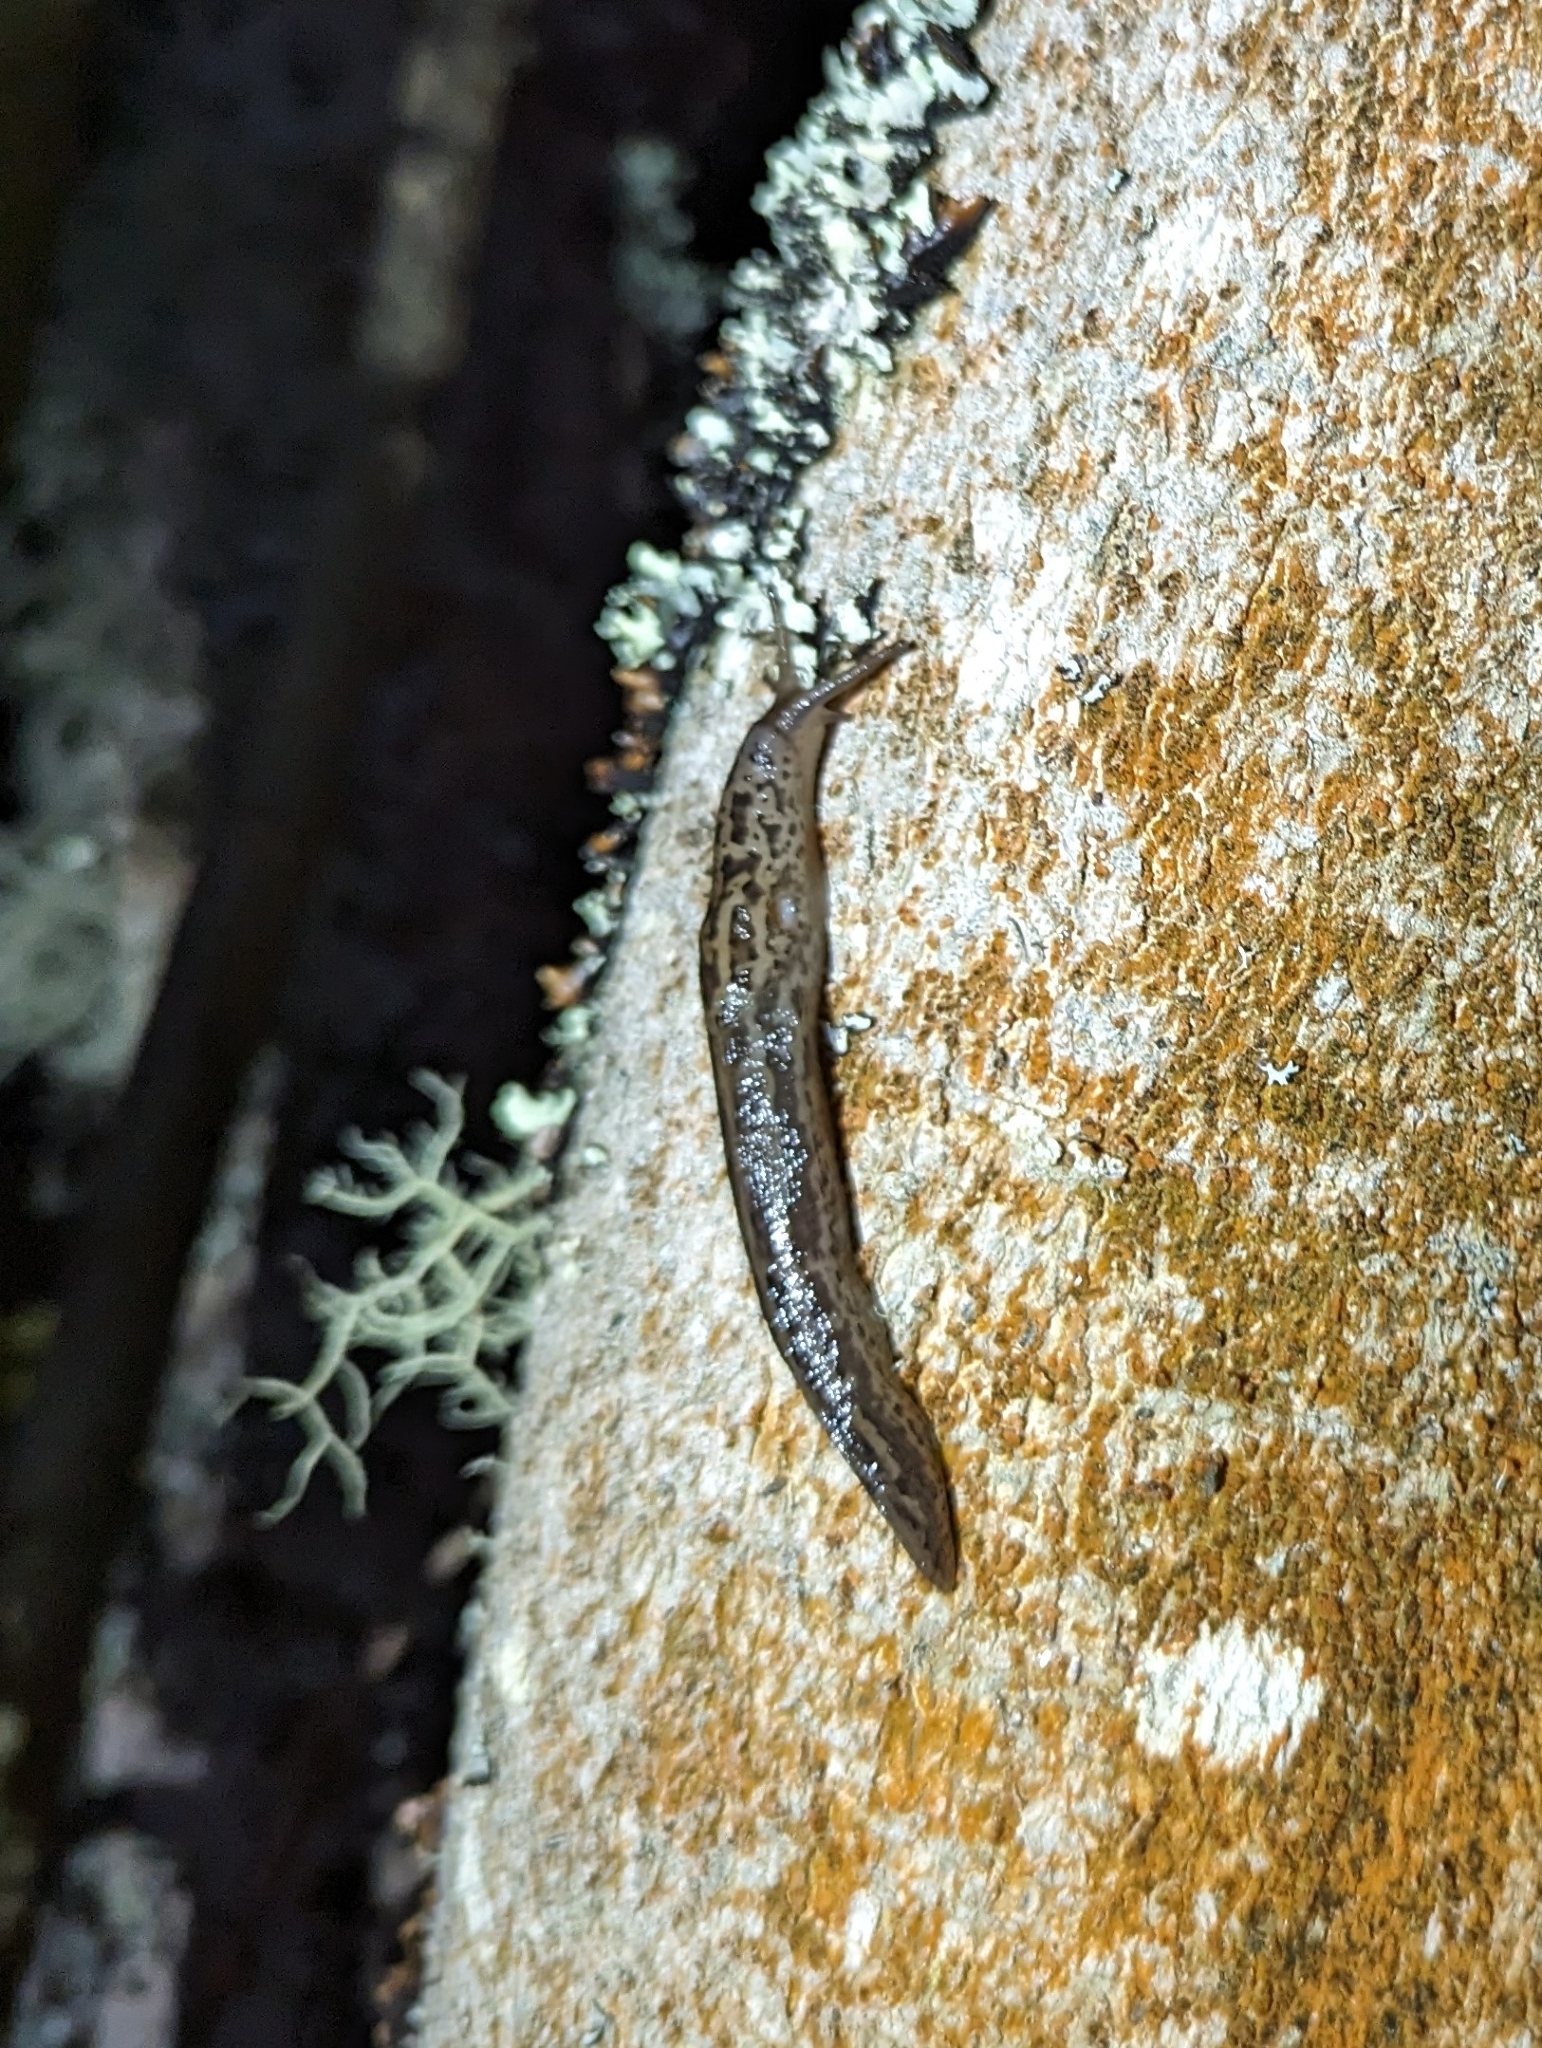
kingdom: Animalia
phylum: Mollusca
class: Gastropoda
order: Stylommatophora
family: Limacidae
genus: Limax
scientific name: Limax maximus
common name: Great grey slug
